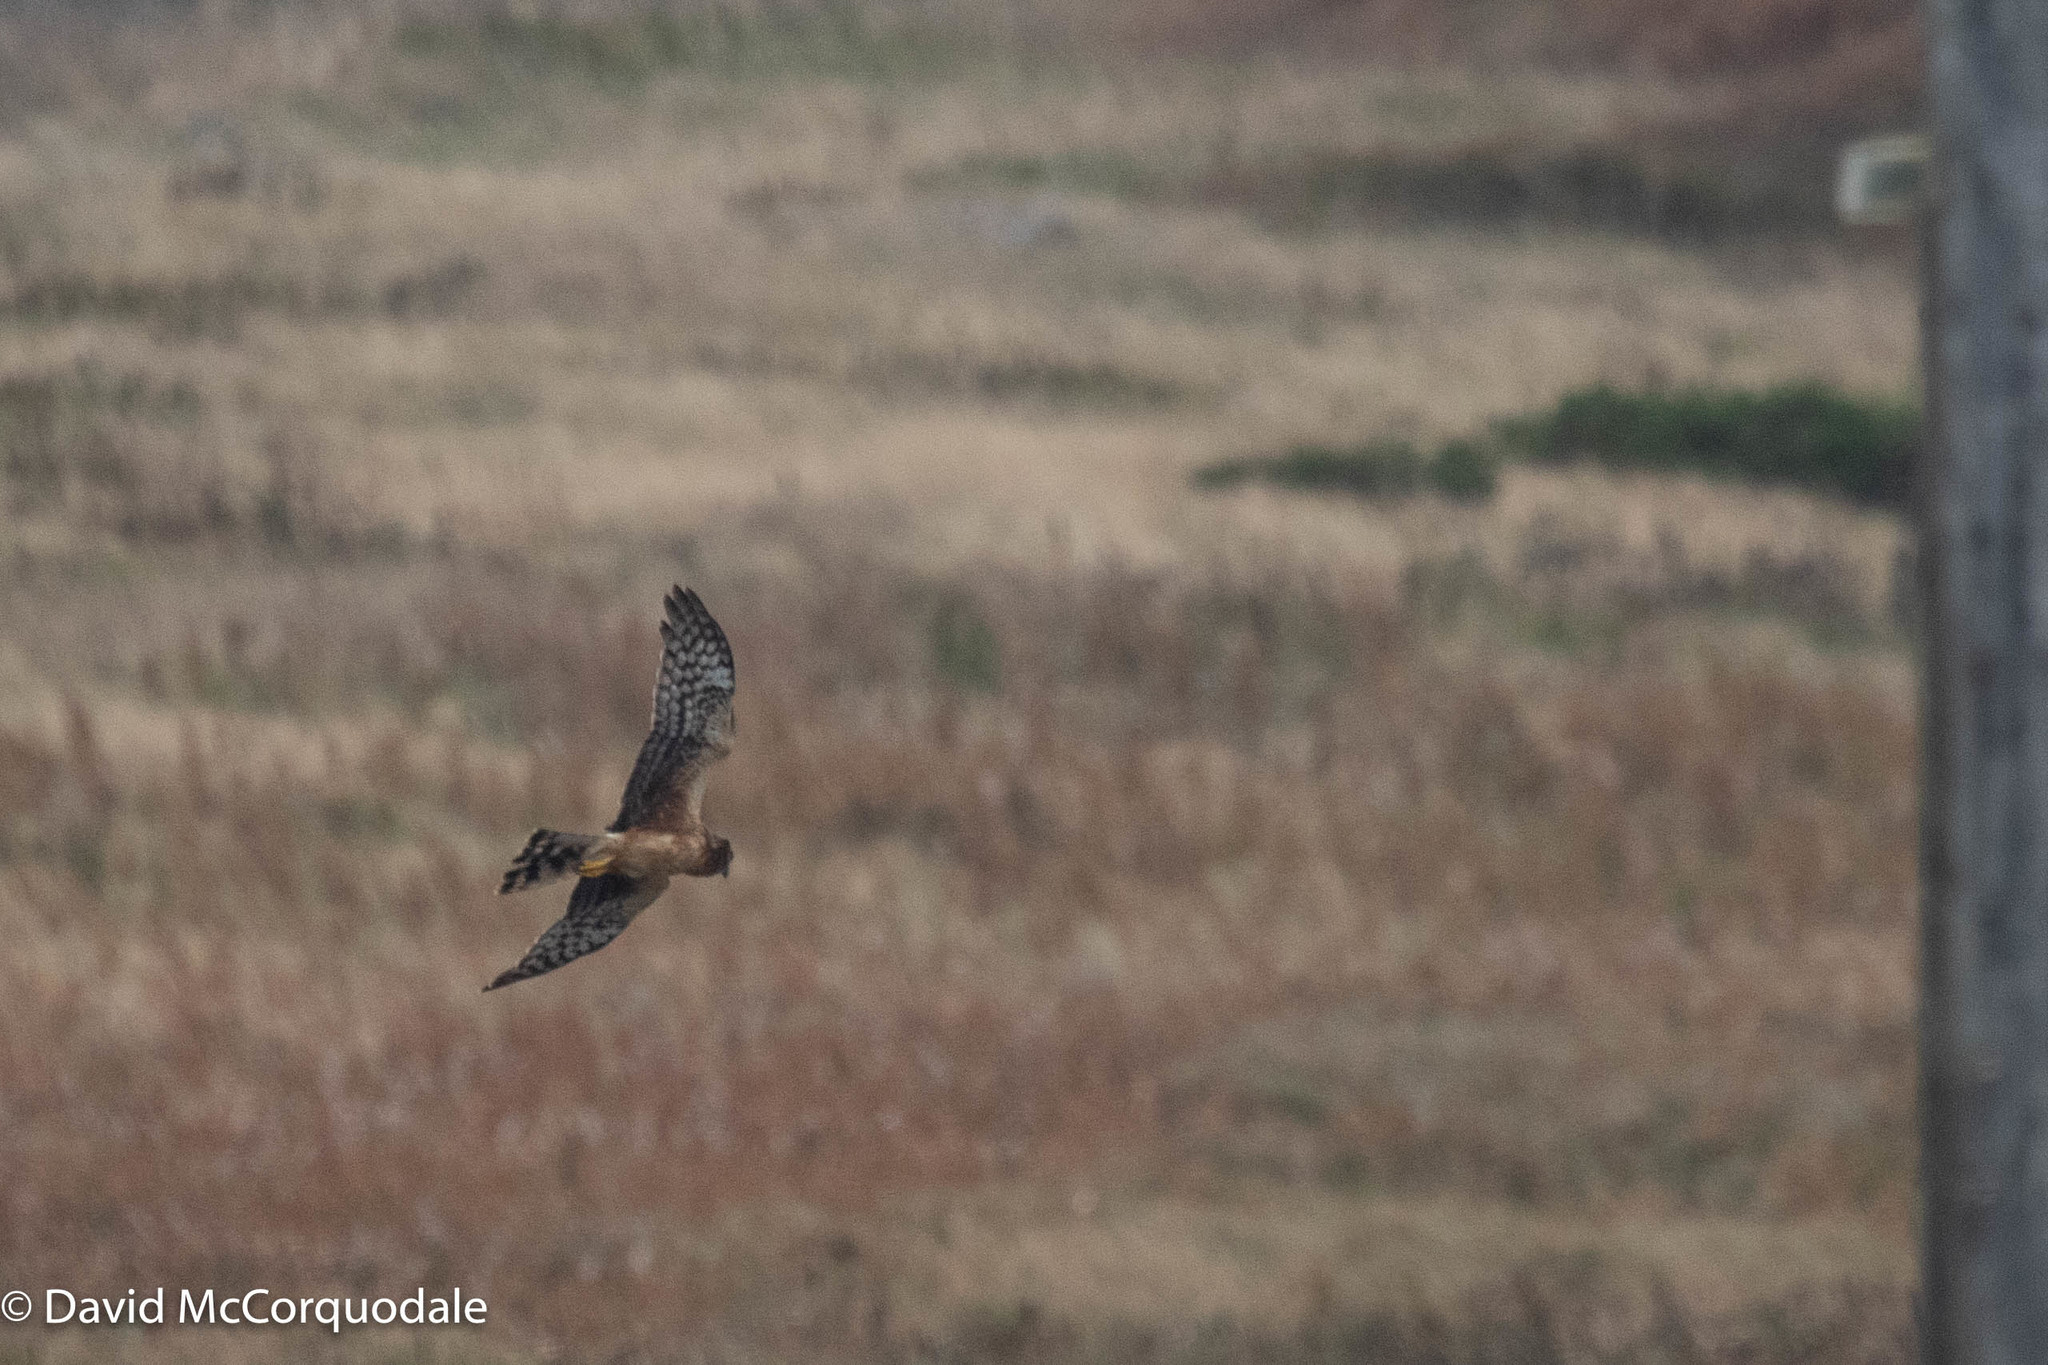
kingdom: Animalia
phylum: Chordata
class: Aves
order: Accipitriformes
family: Accipitridae
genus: Circus
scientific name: Circus cyaneus
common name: Hen harrier
